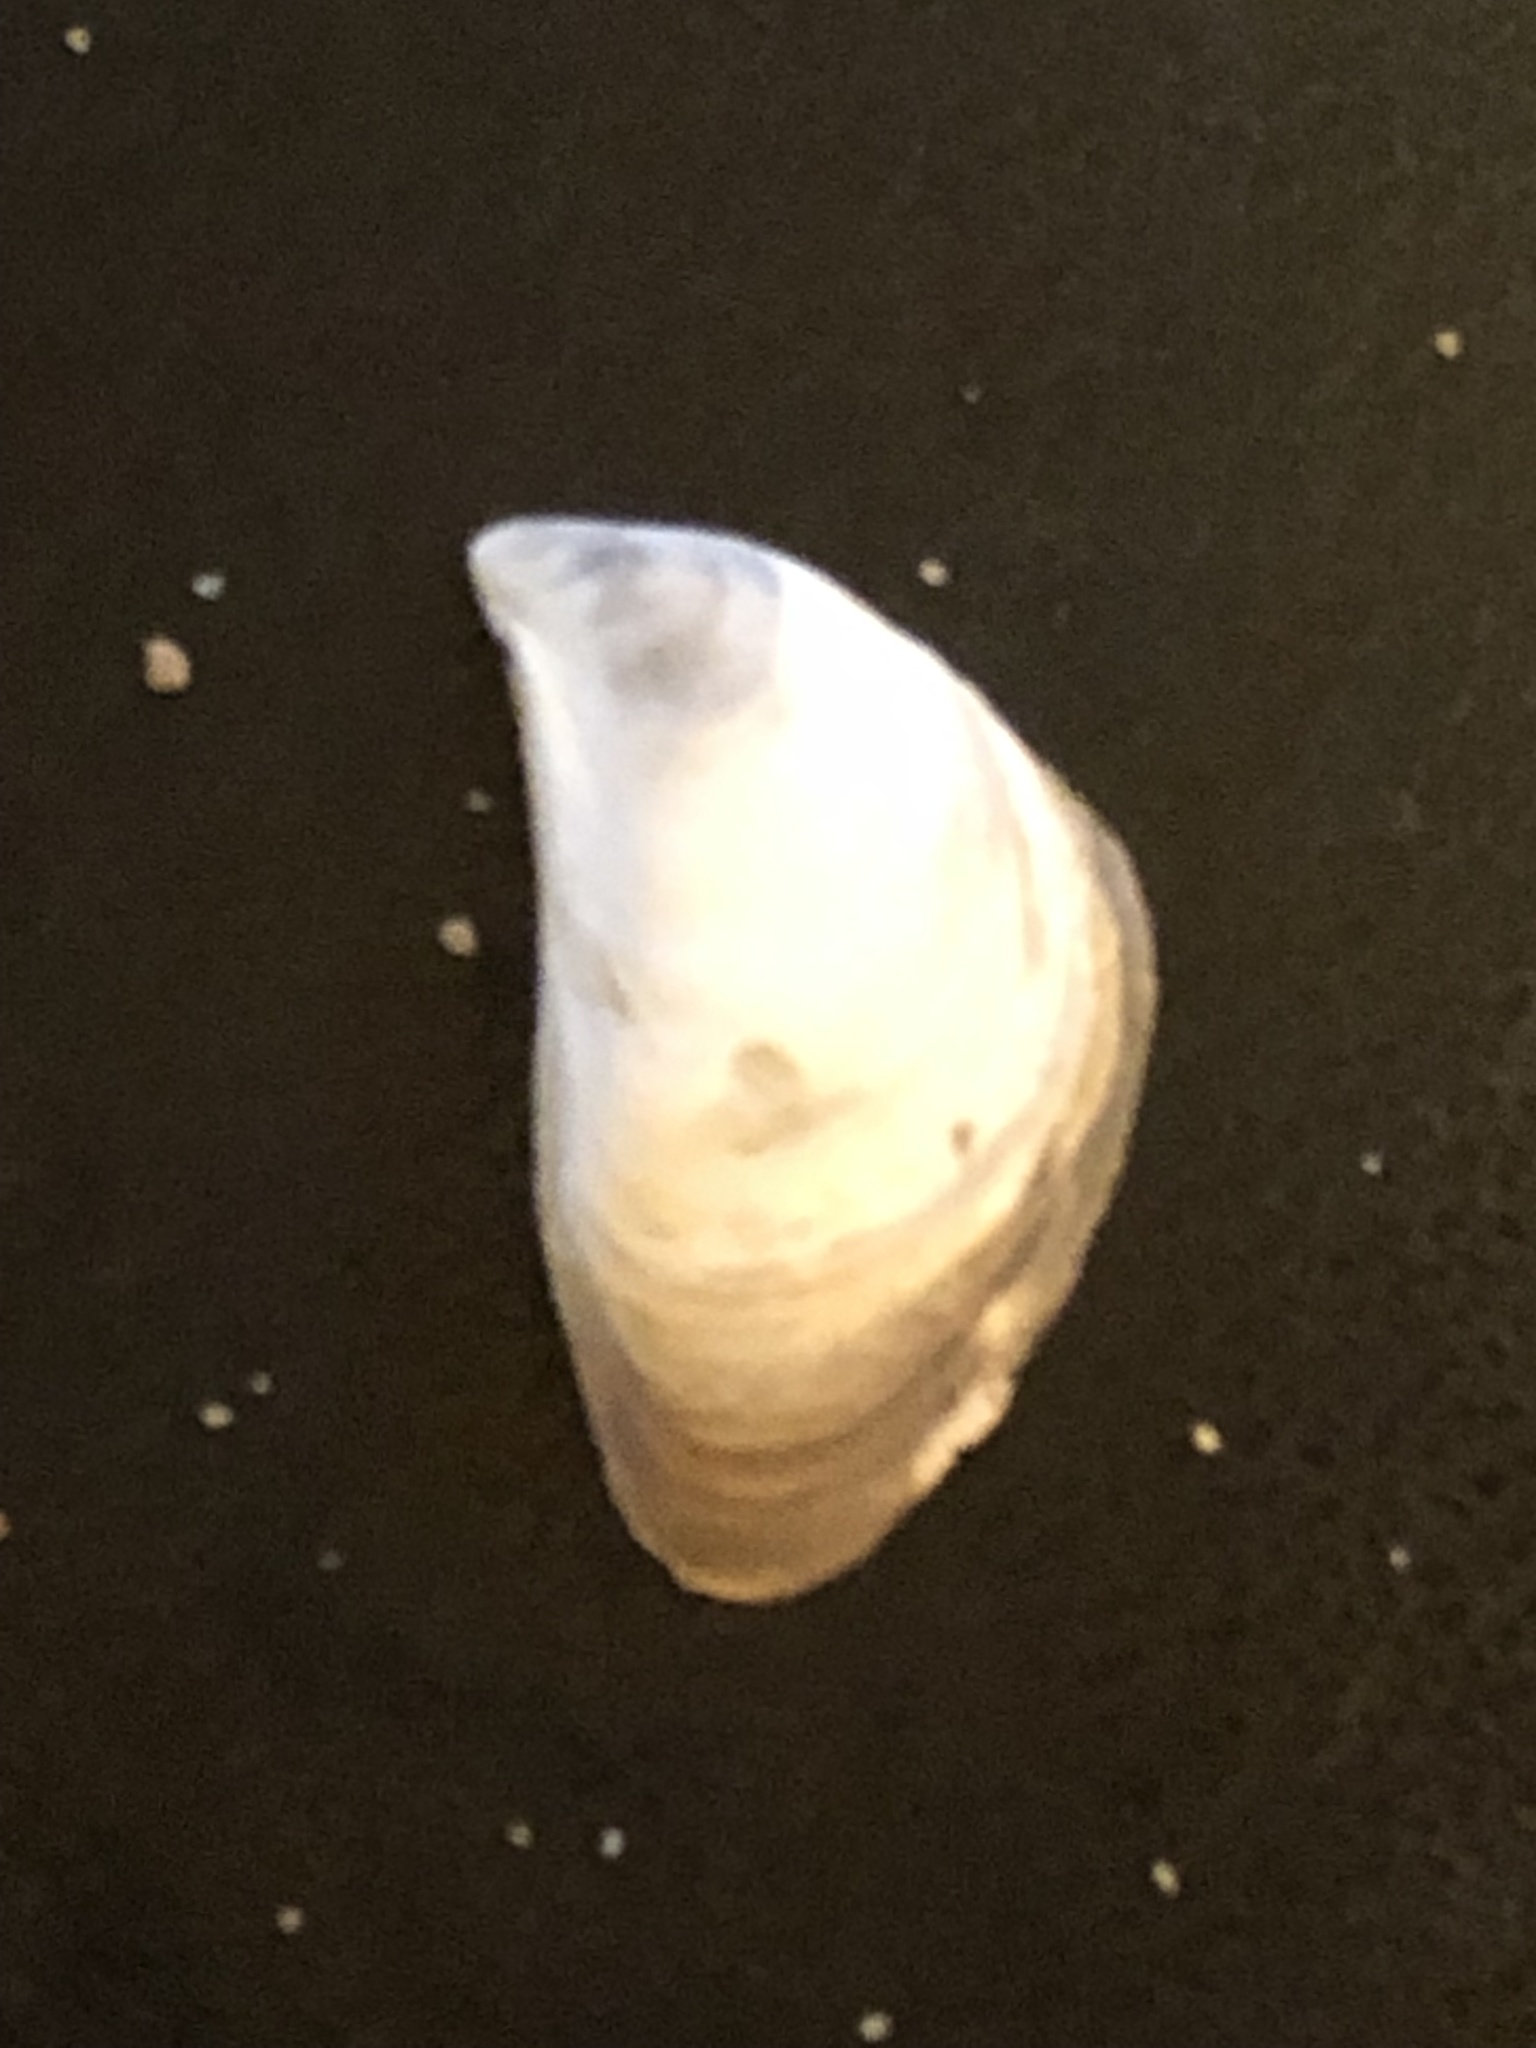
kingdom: Animalia
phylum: Mollusca
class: Bivalvia
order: Myida
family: Dreissenidae
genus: Dreissena
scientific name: Dreissena bugensis
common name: Quagga mussel
